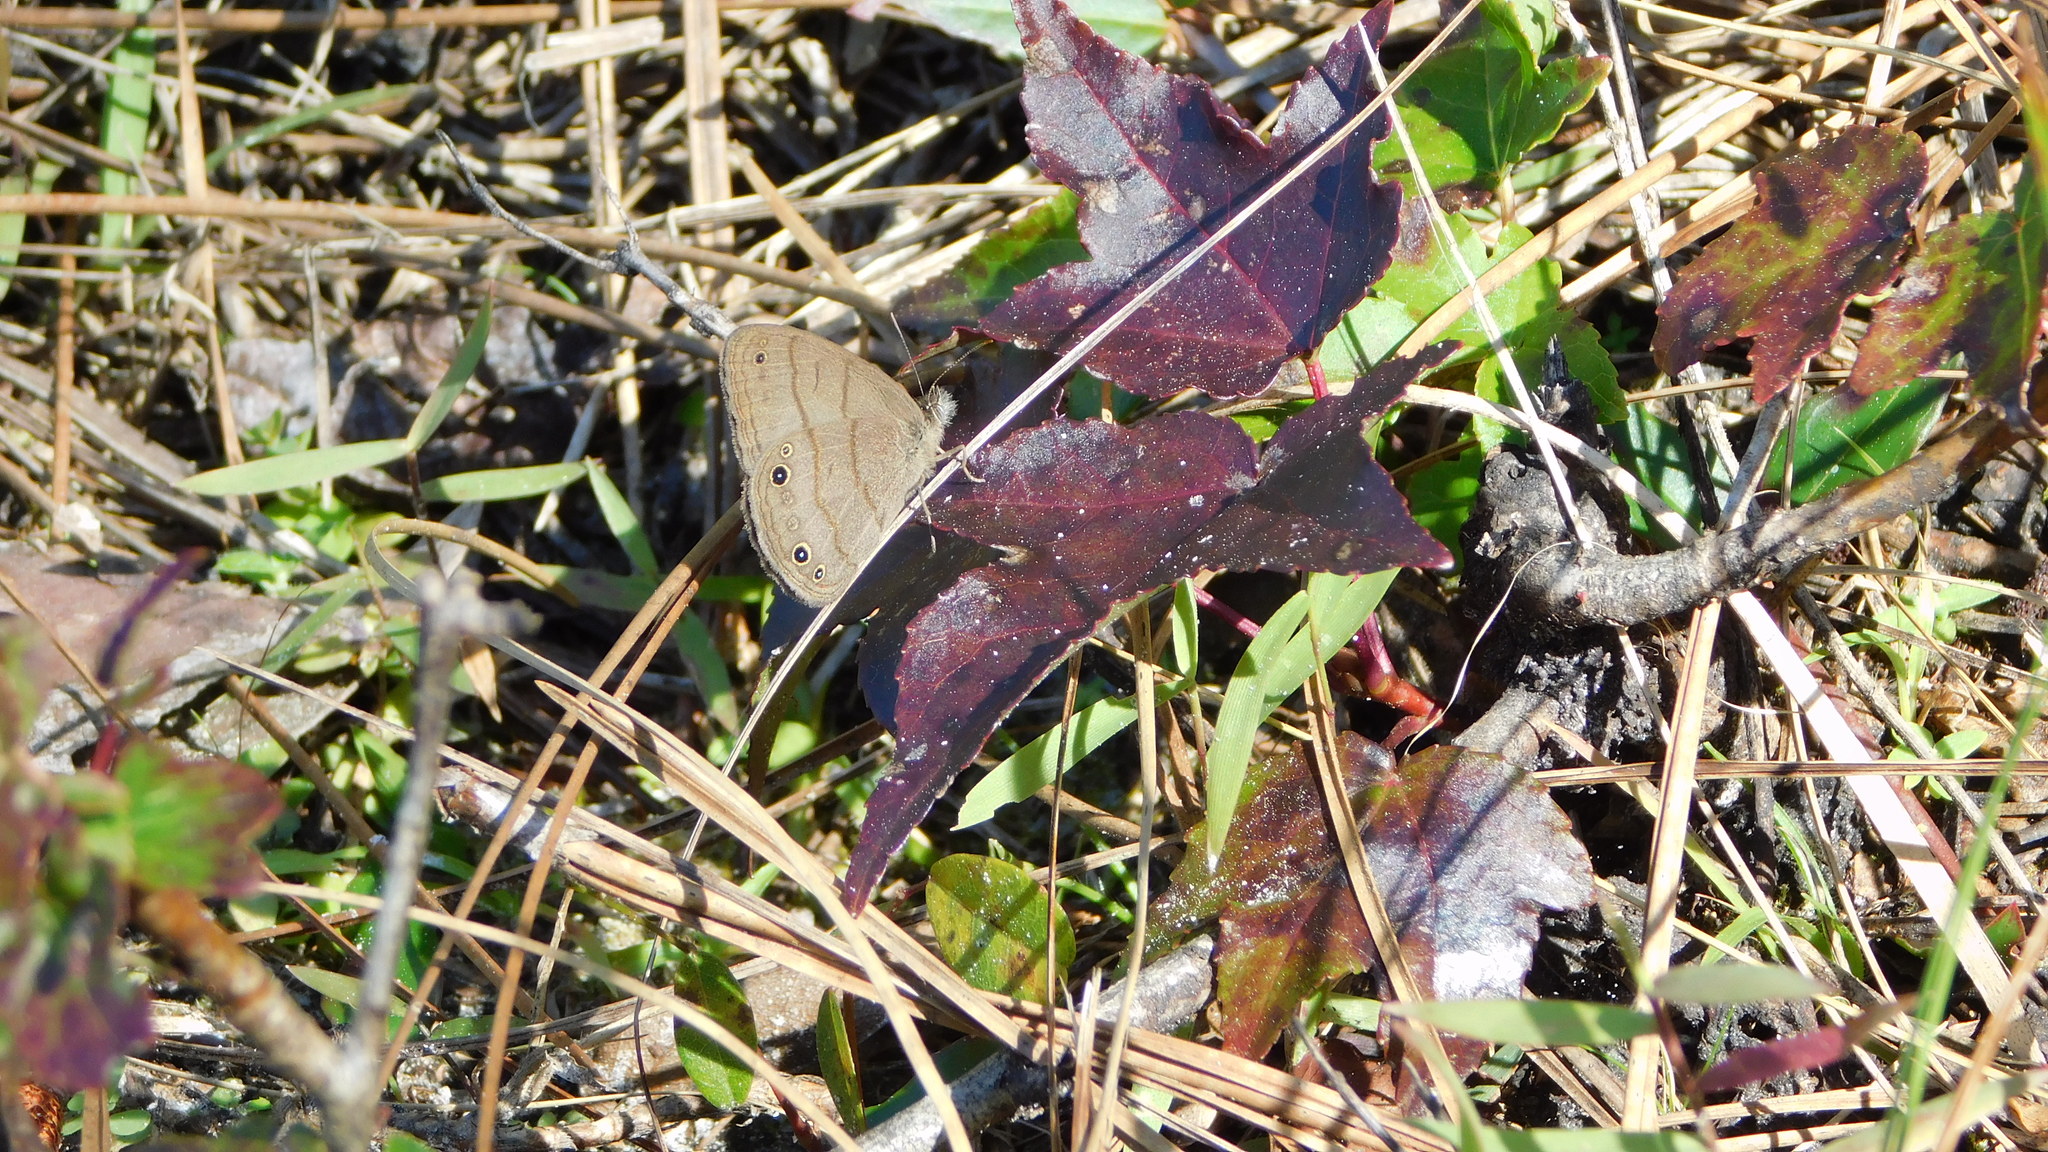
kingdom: Animalia
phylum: Arthropoda
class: Insecta
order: Lepidoptera
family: Nymphalidae
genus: Hermeuptychia
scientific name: Hermeuptychia intricata
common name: Intricate satyr
